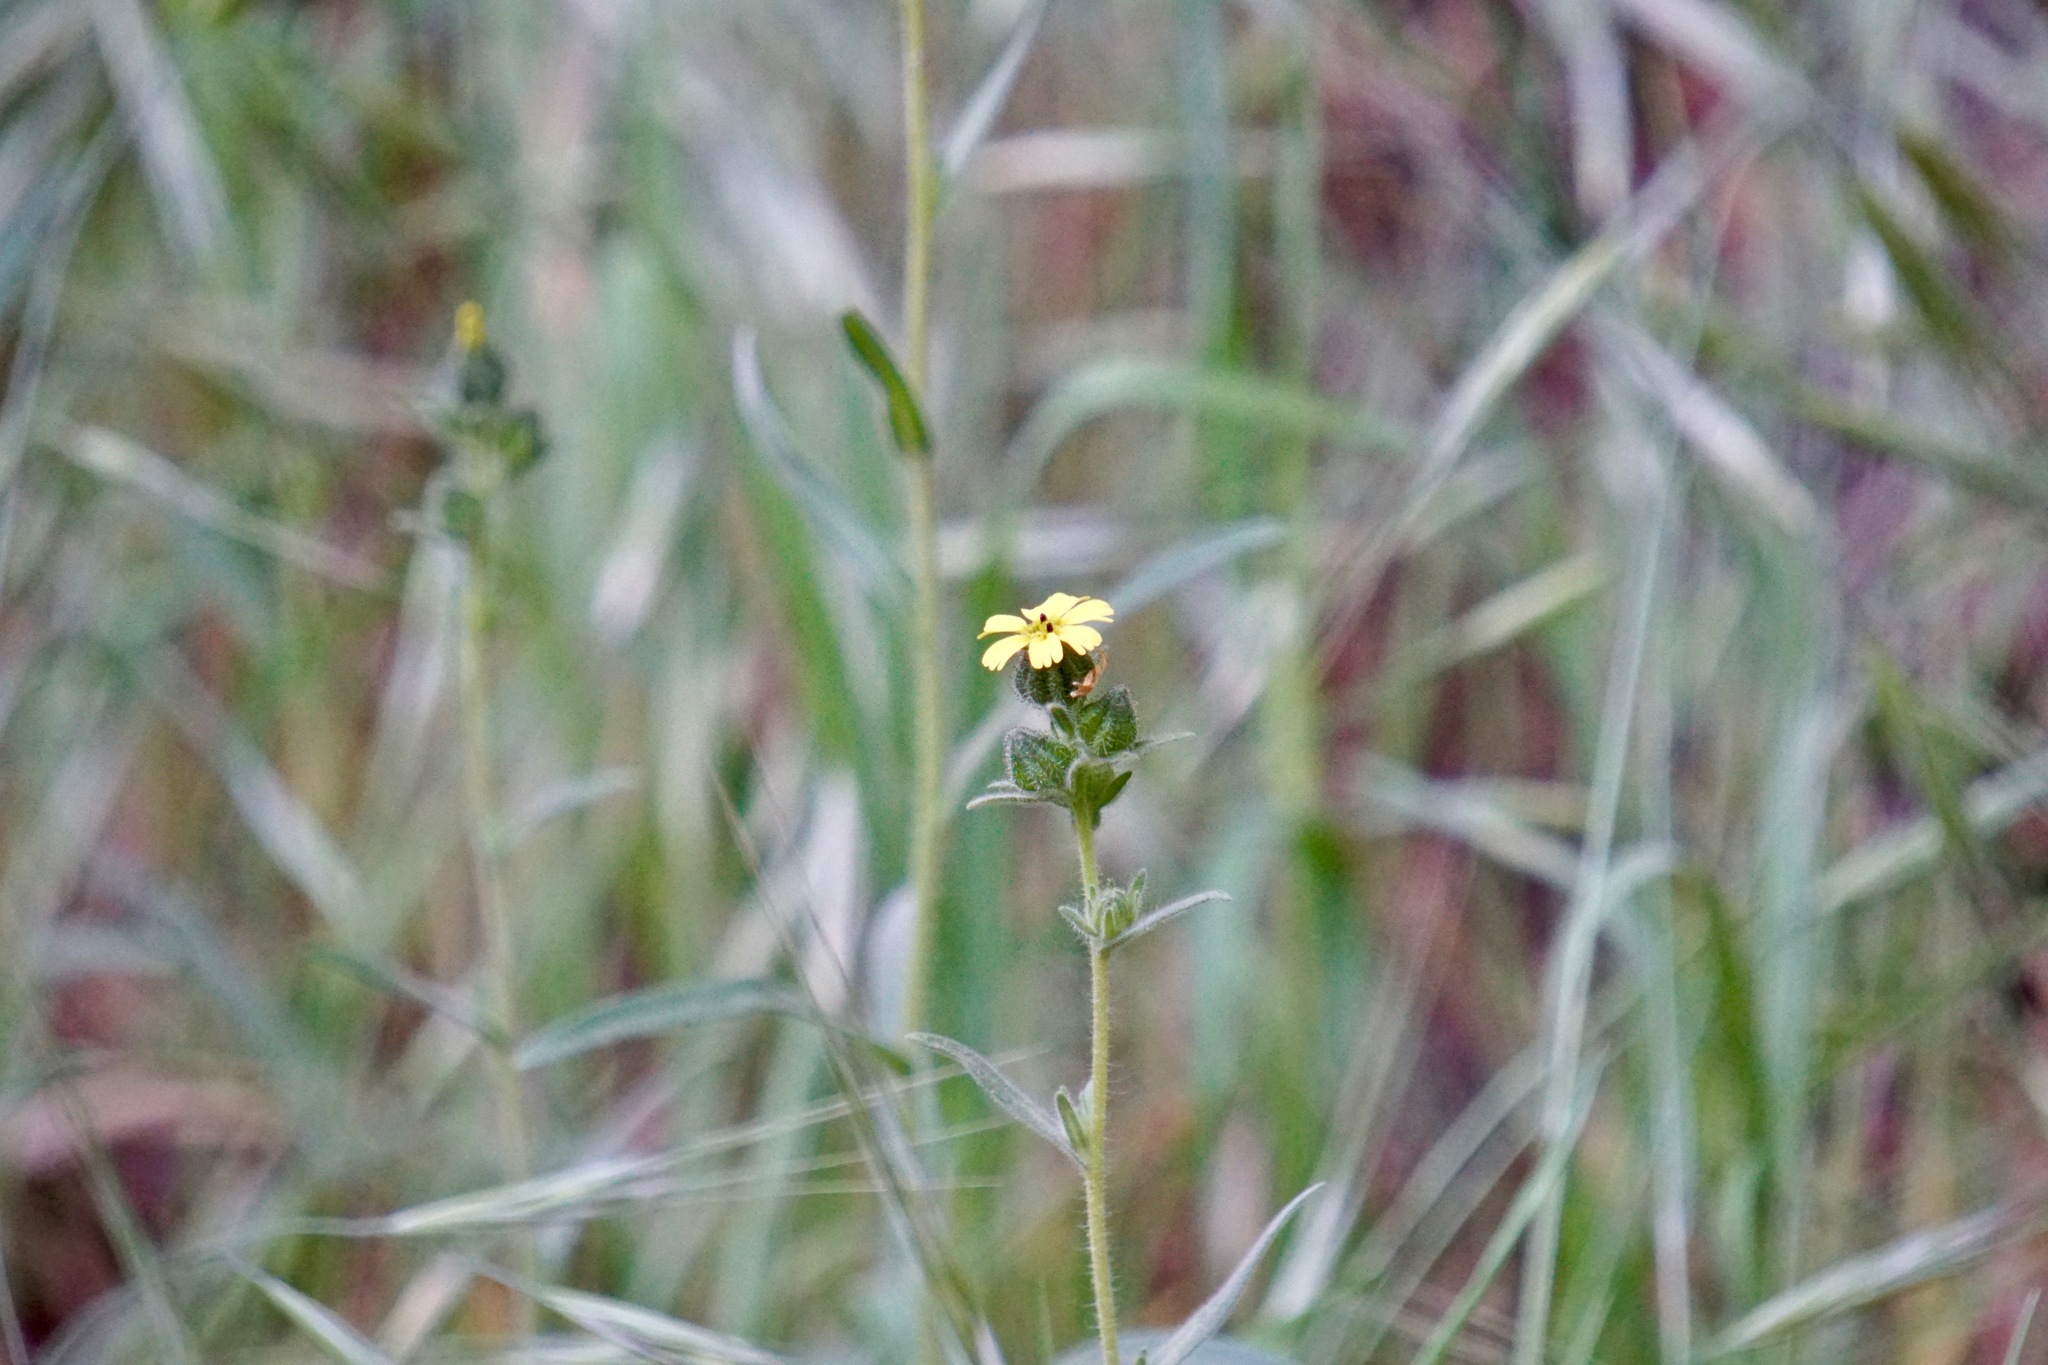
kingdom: Plantae
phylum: Tracheophyta
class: Magnoliopsida
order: Asterales
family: Asteraceae
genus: Madia
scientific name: Madia gracilis
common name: Grassy tarweed
